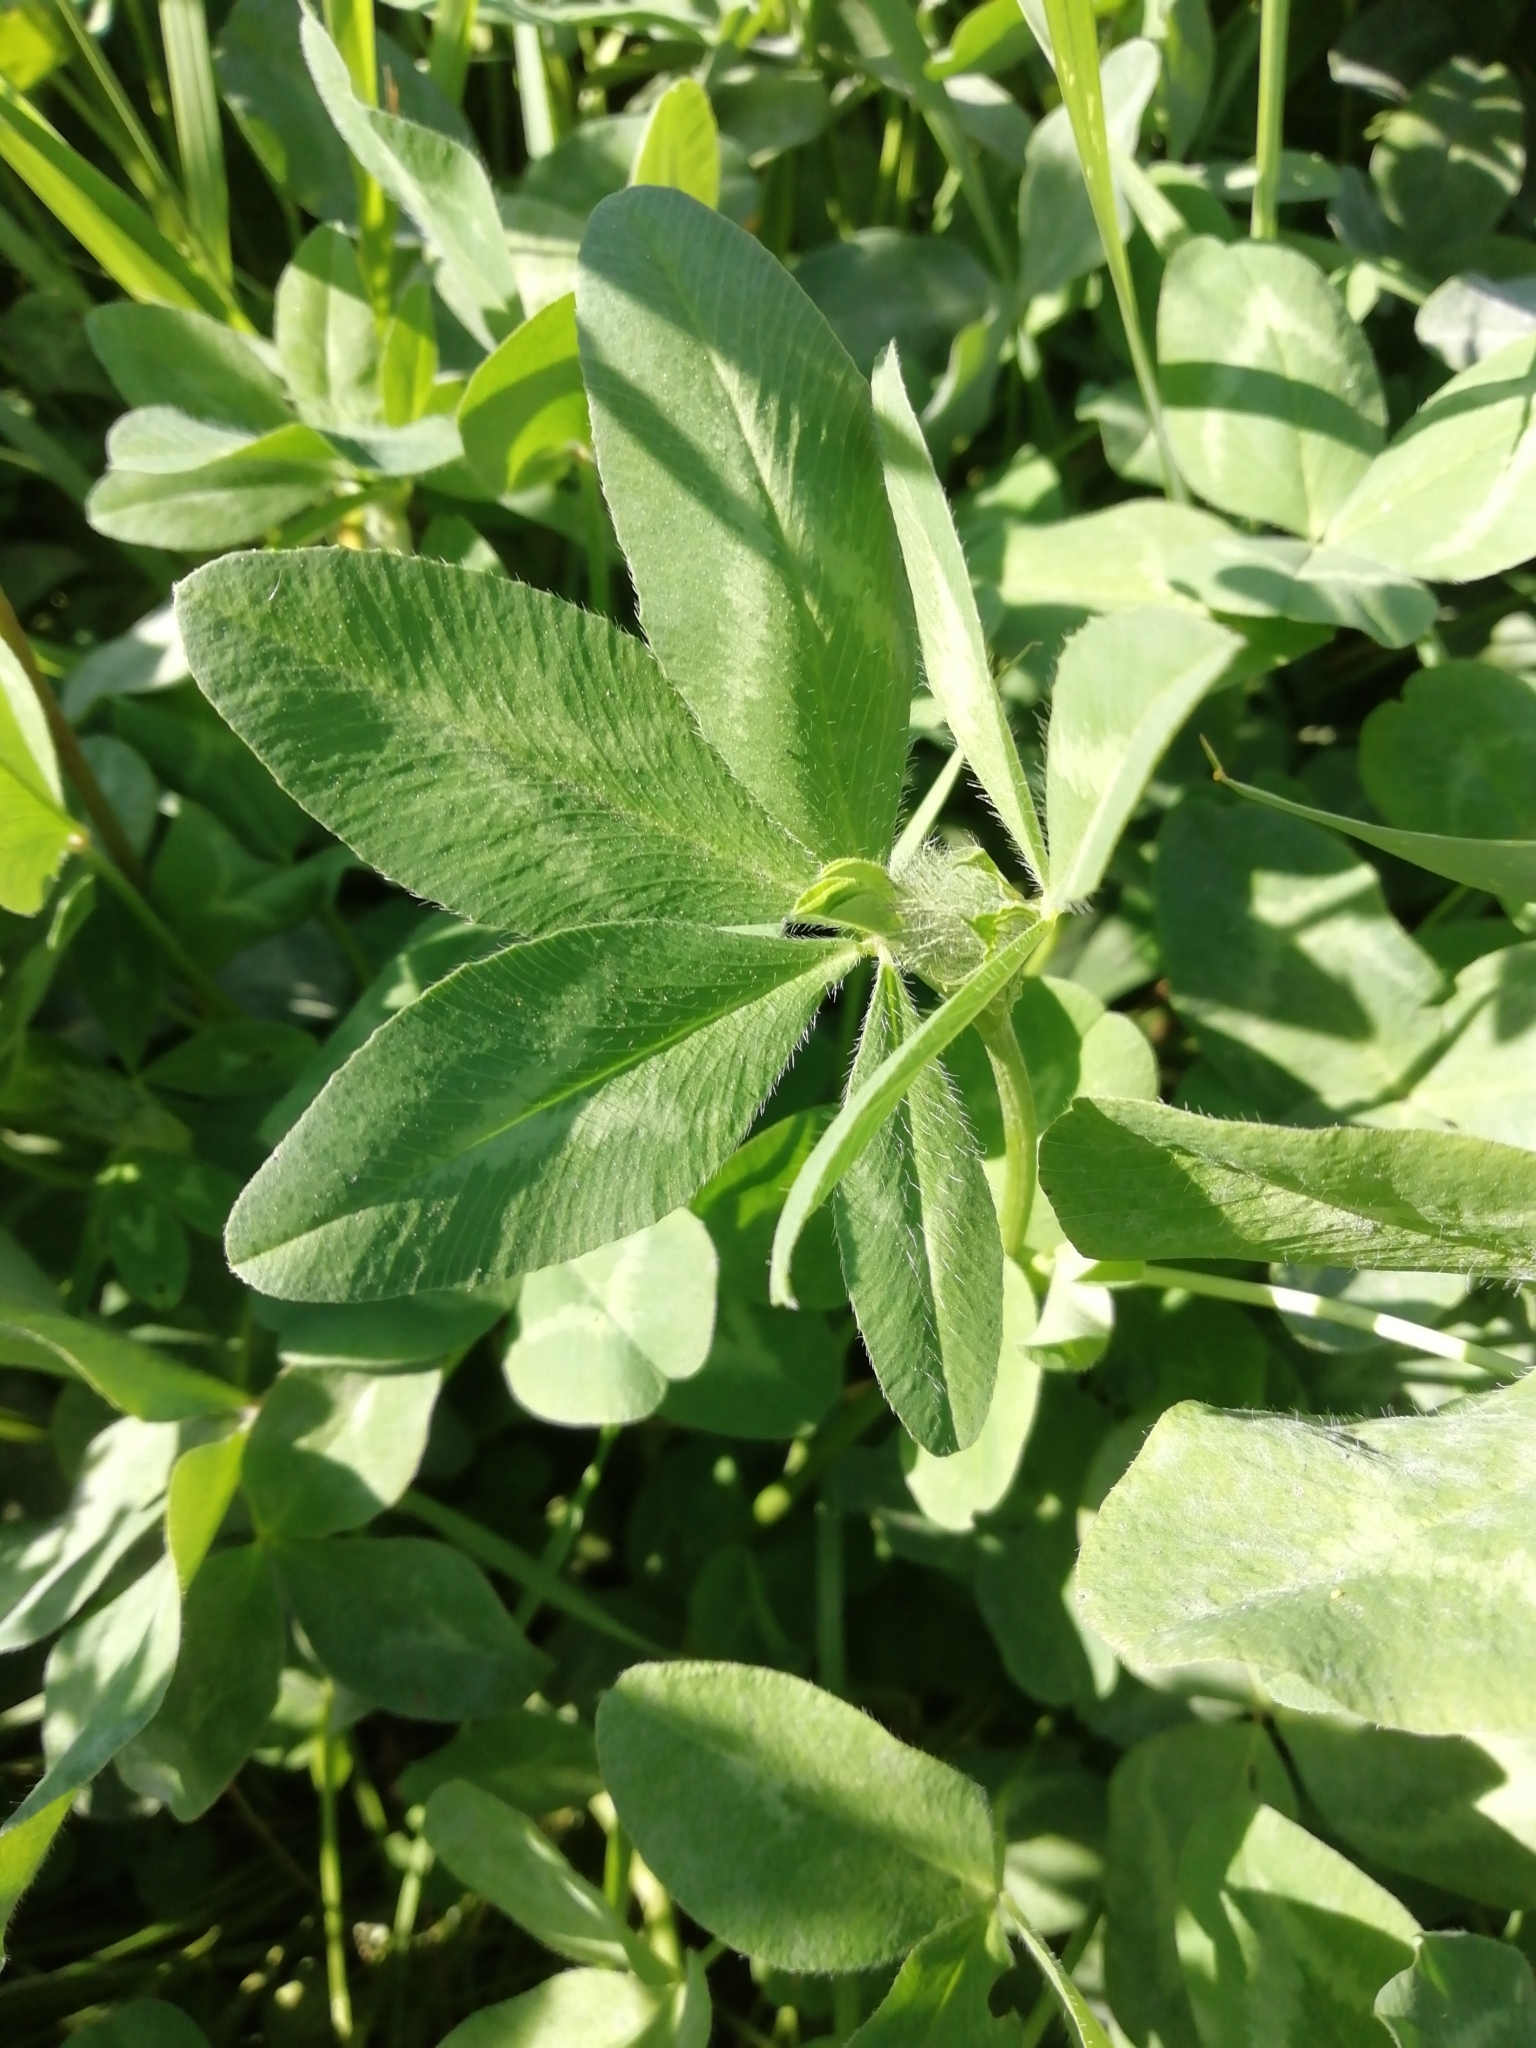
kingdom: Plantae
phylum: Tracheophyta
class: Magnoliopsida
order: Fabales
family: Fabaceae
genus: Trifolium
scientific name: Trifolium pratense
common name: Red clover
